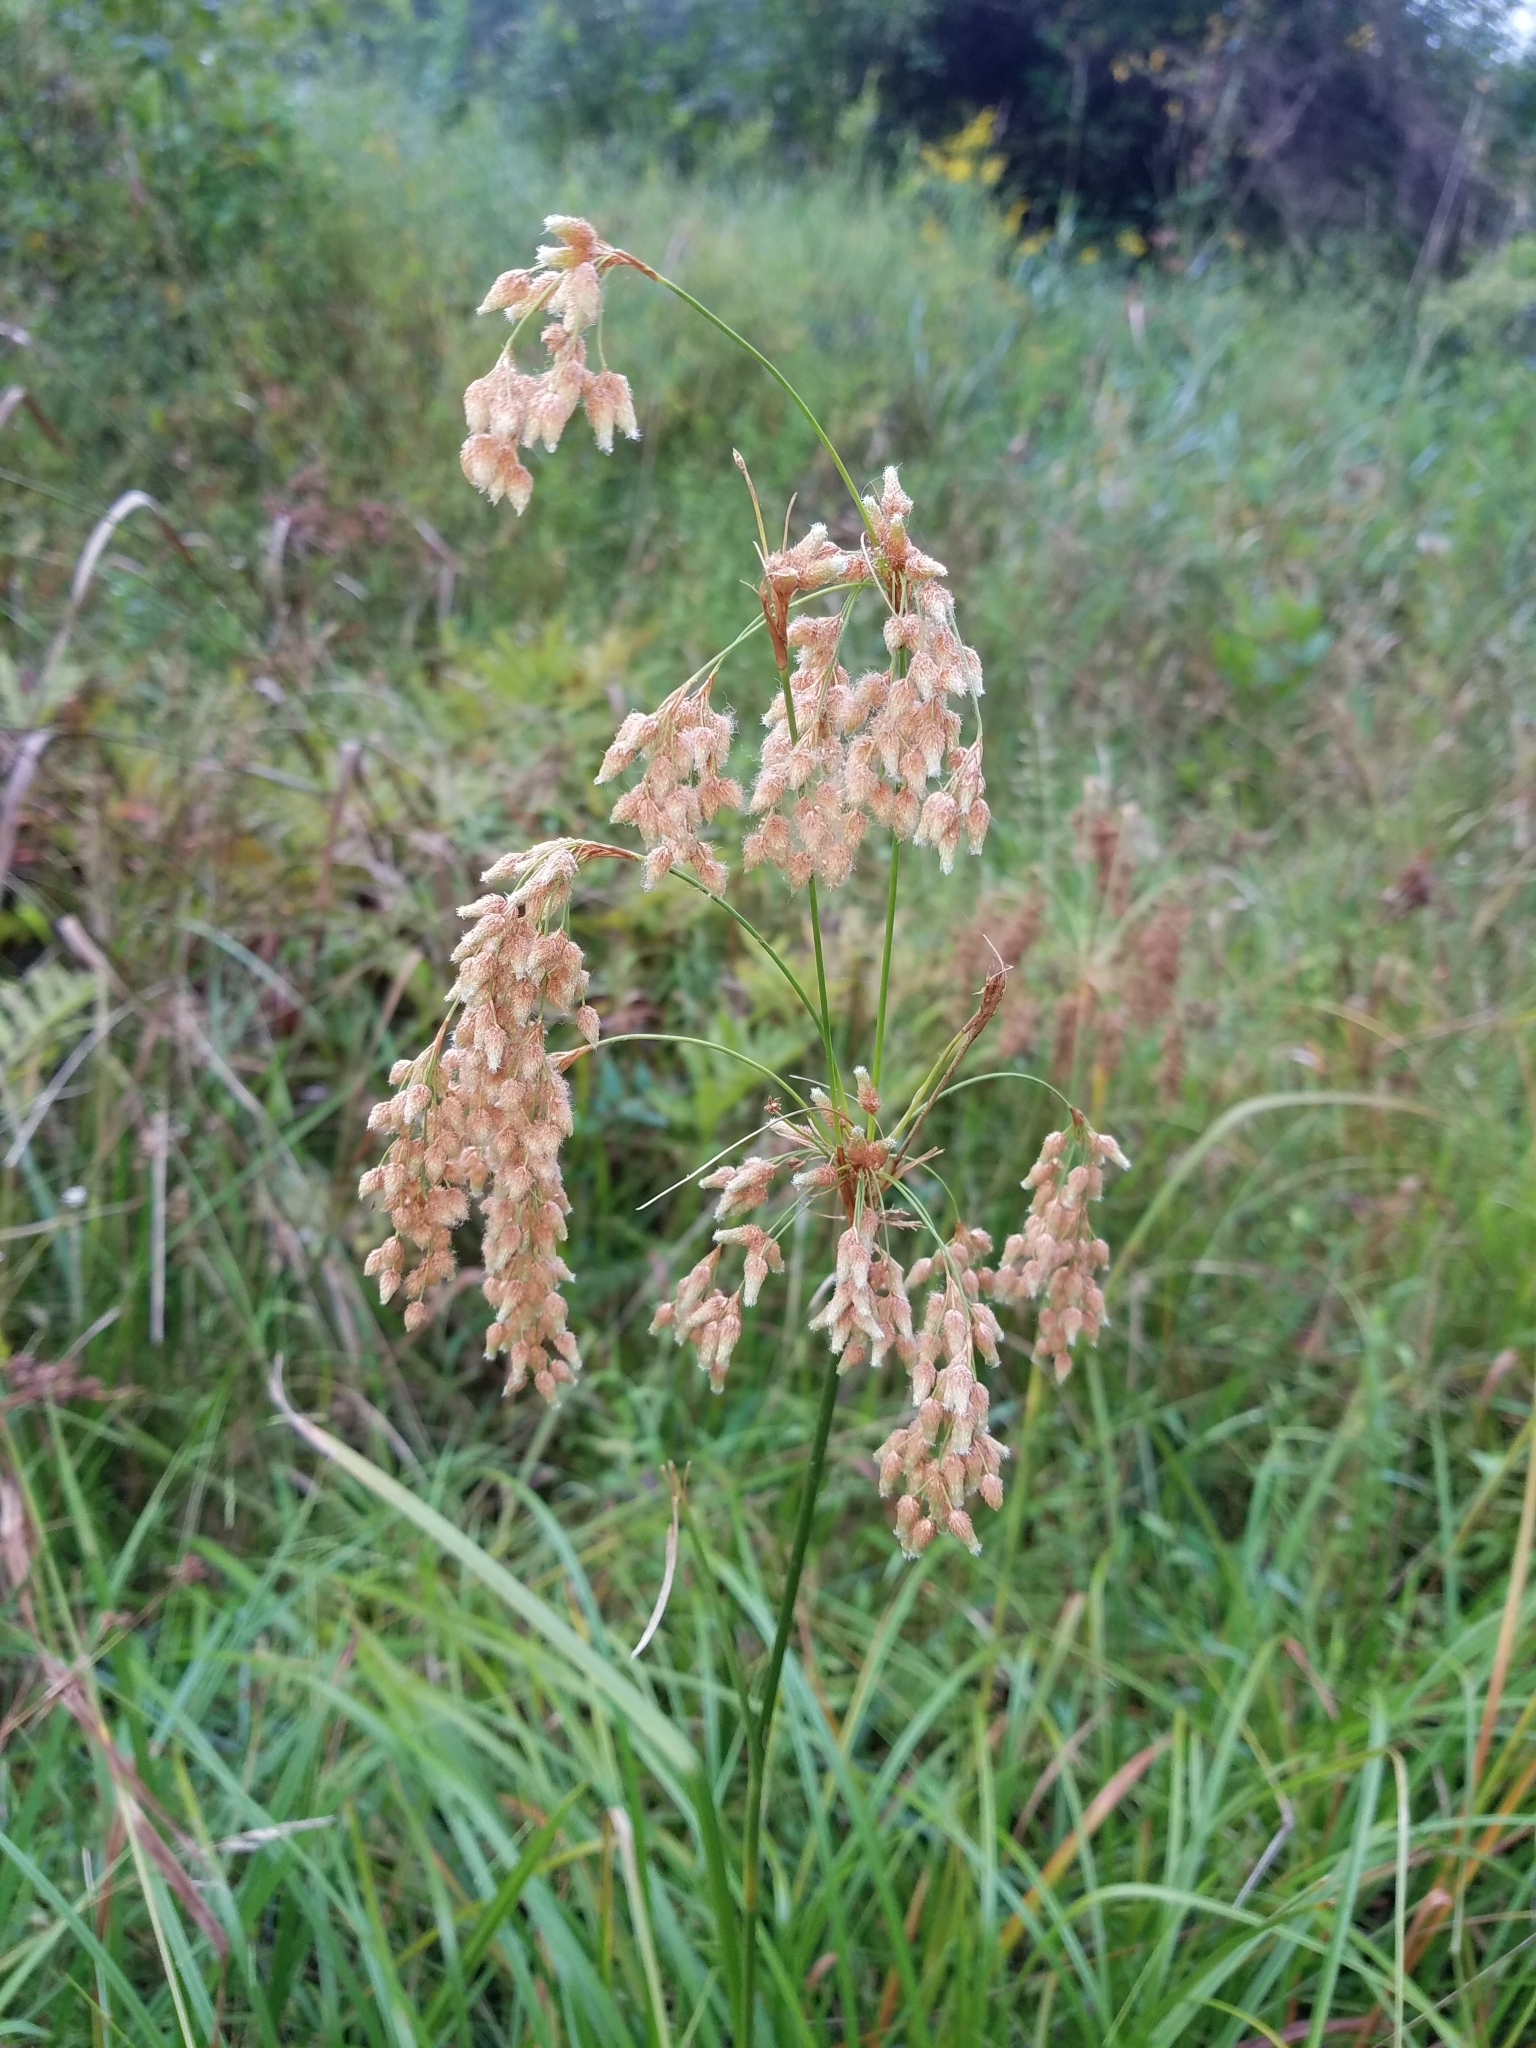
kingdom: Plantae
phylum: Tracheophyta
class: Liliopsida
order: Poales
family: Cyperaceae
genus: Scirpus
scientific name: Scirpus cyperinus
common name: Black-sheathed bulrush
